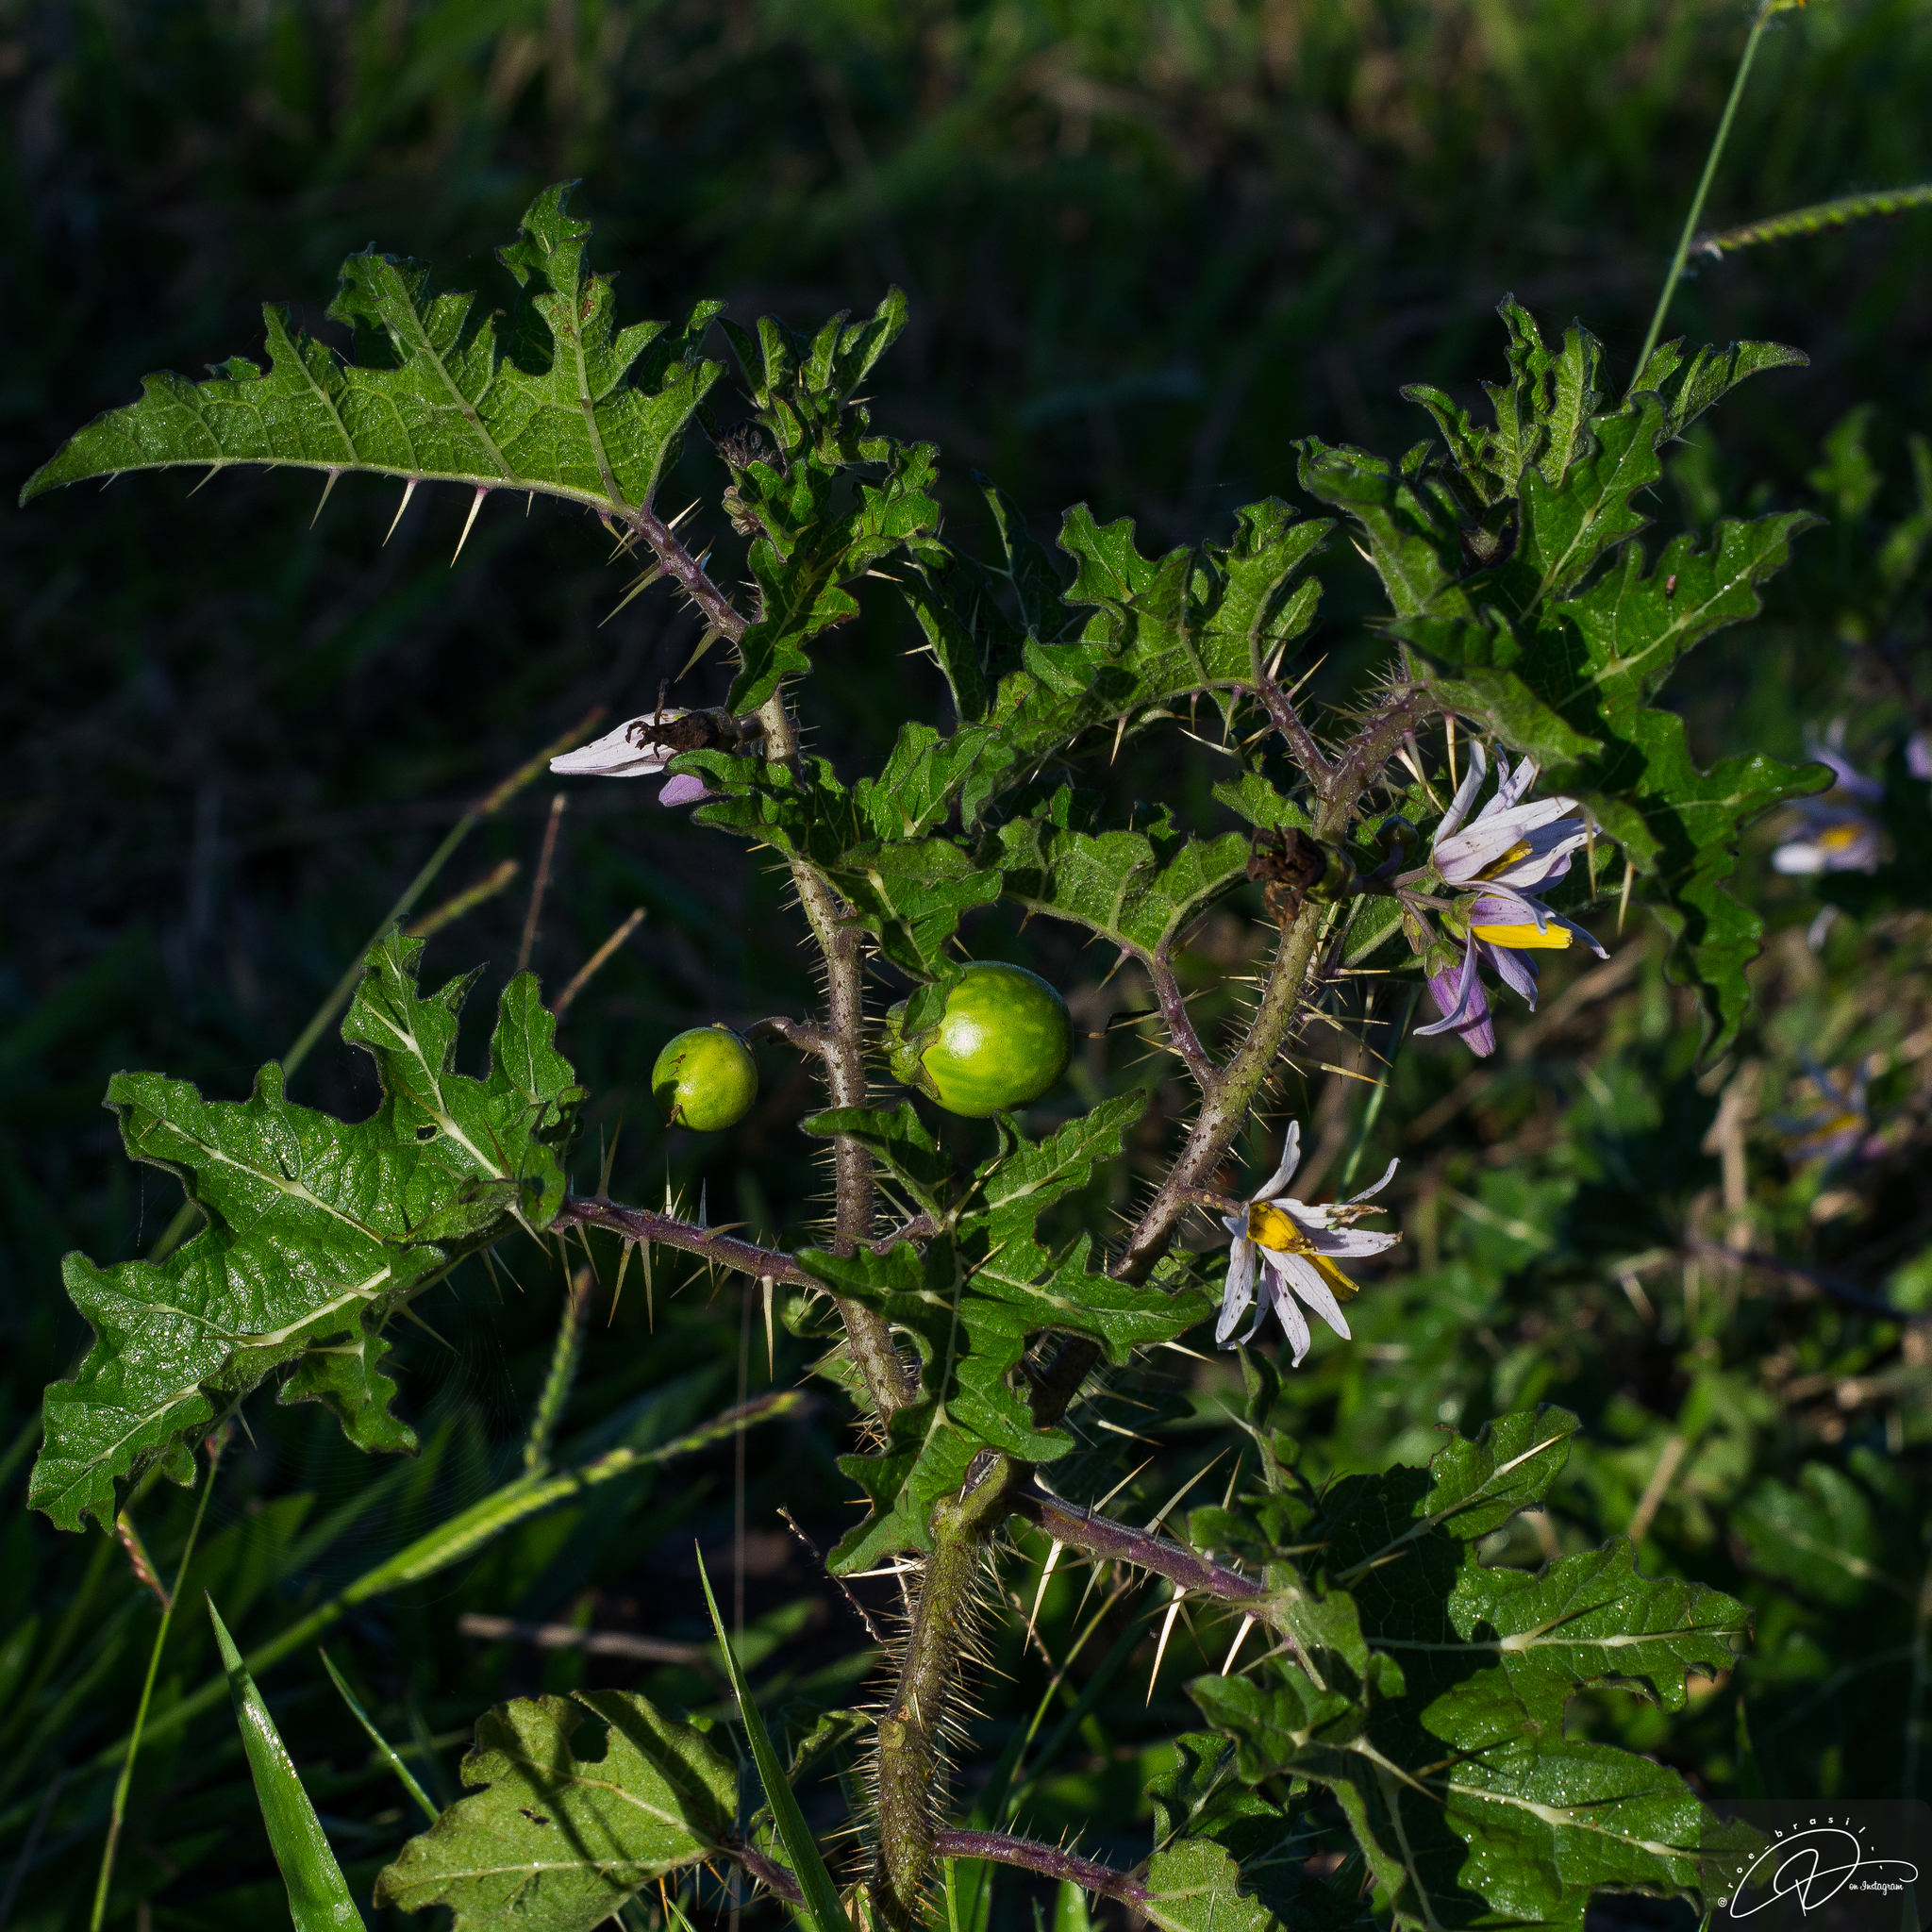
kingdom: Plantae
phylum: Tracheophyta
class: Magnoliopsida
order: Solanales
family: Solanaceae
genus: Solanum
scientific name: Solanum palinacanthum
